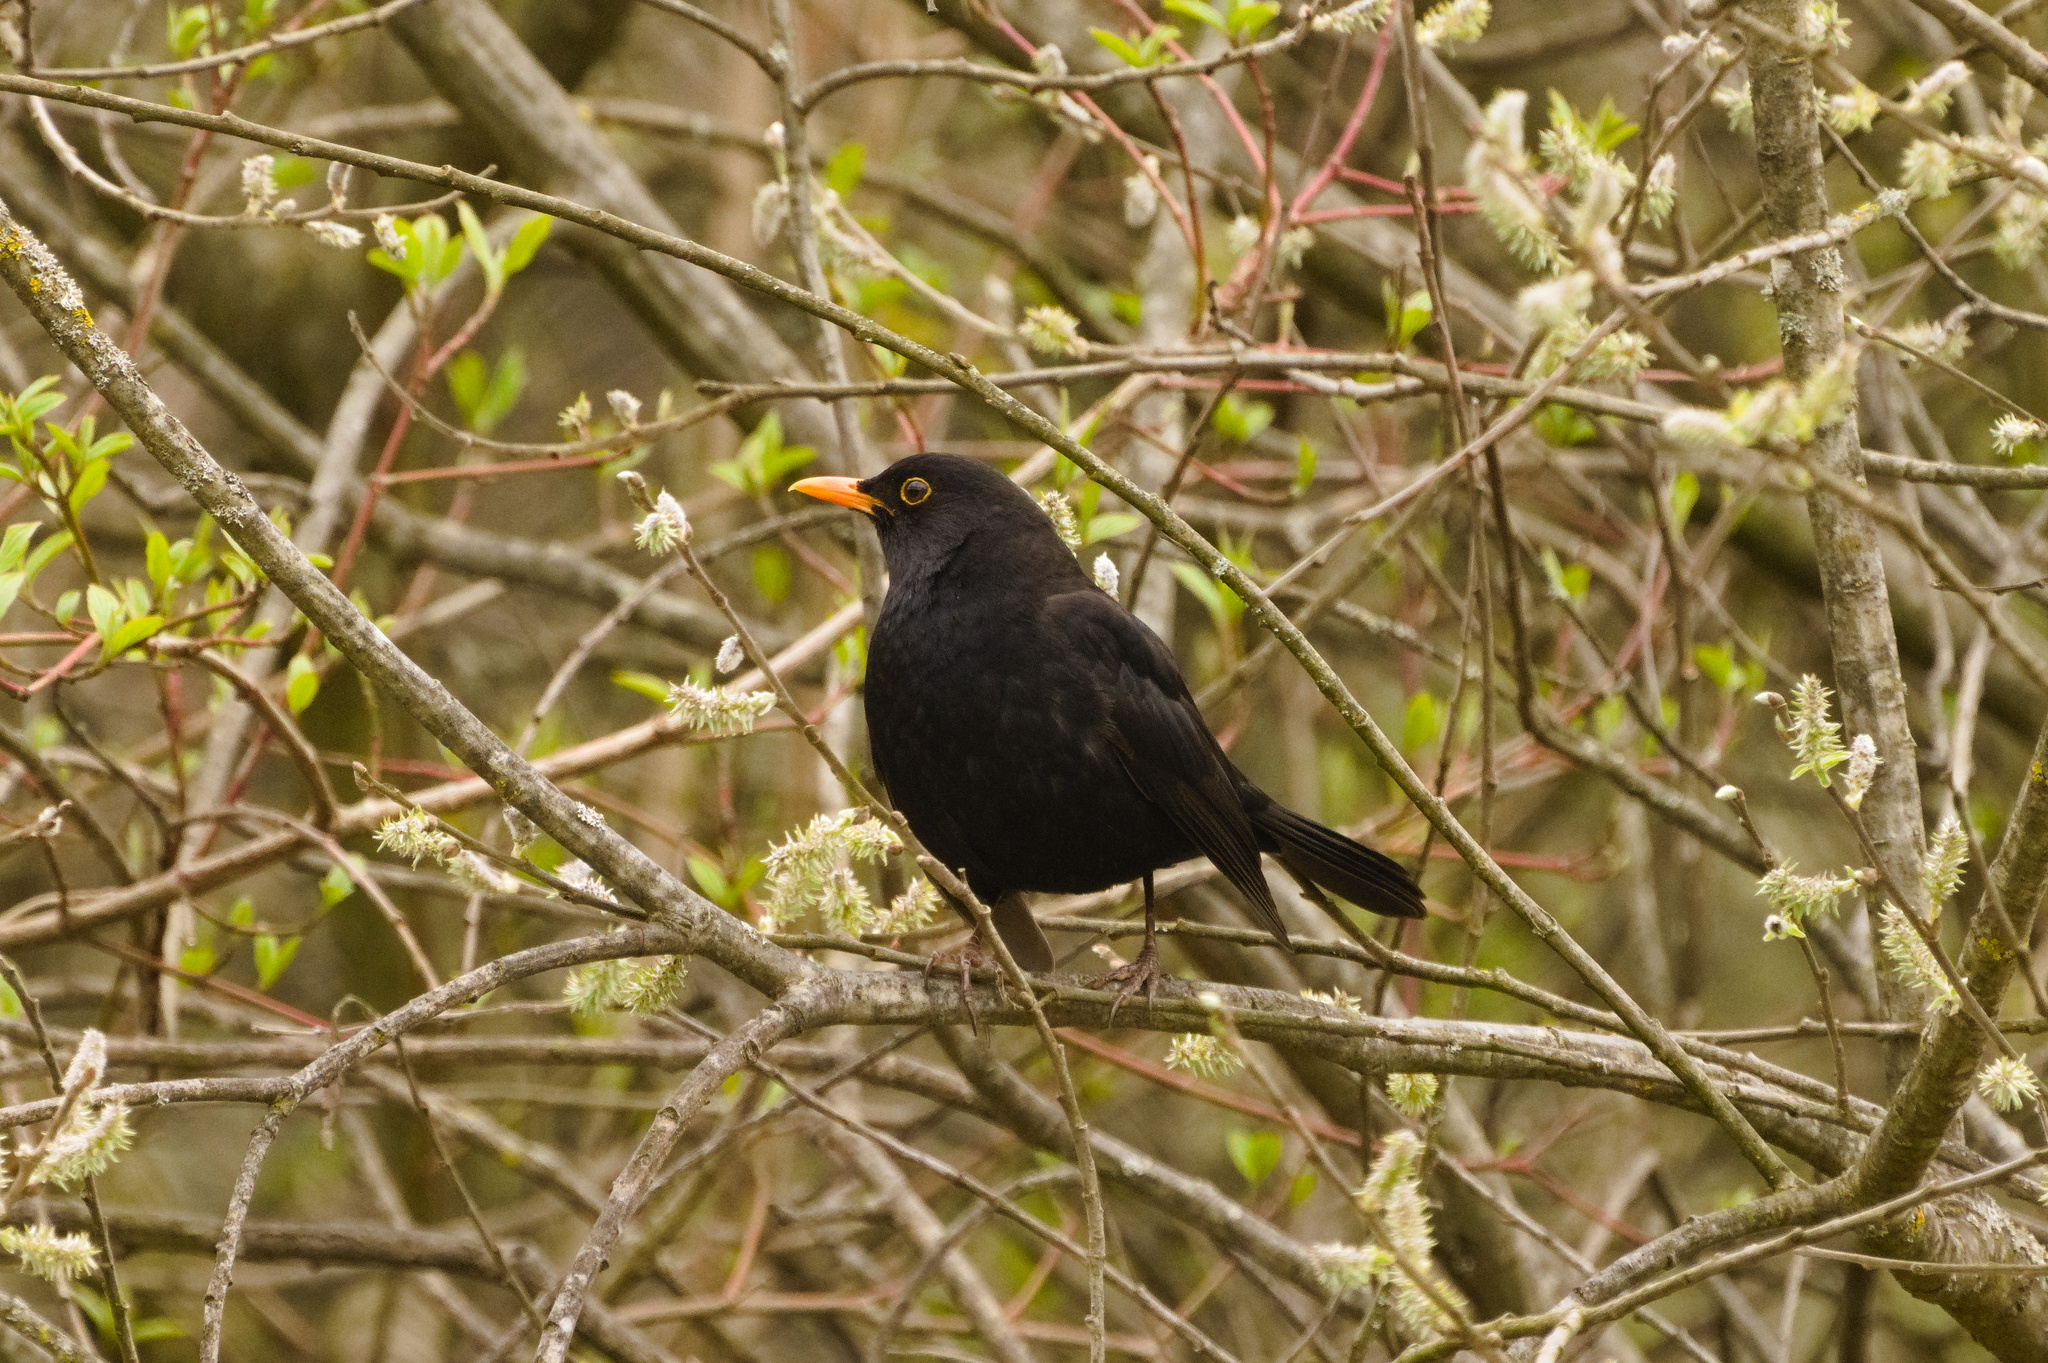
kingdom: Animalia
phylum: Chordata
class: Aves
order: Passeriformes
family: Turdidae
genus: Turdus
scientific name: Turdus merula
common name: Common blackbird
